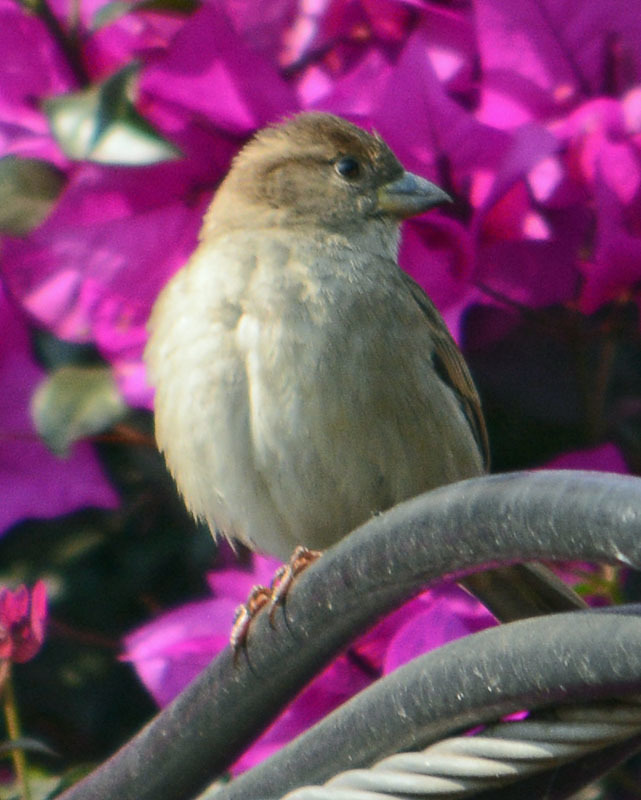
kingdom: Animalia
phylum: Chordata
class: Aves
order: Passeriformes
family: Passeridae
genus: Passer
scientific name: Passer domesticus
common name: House sparrow
